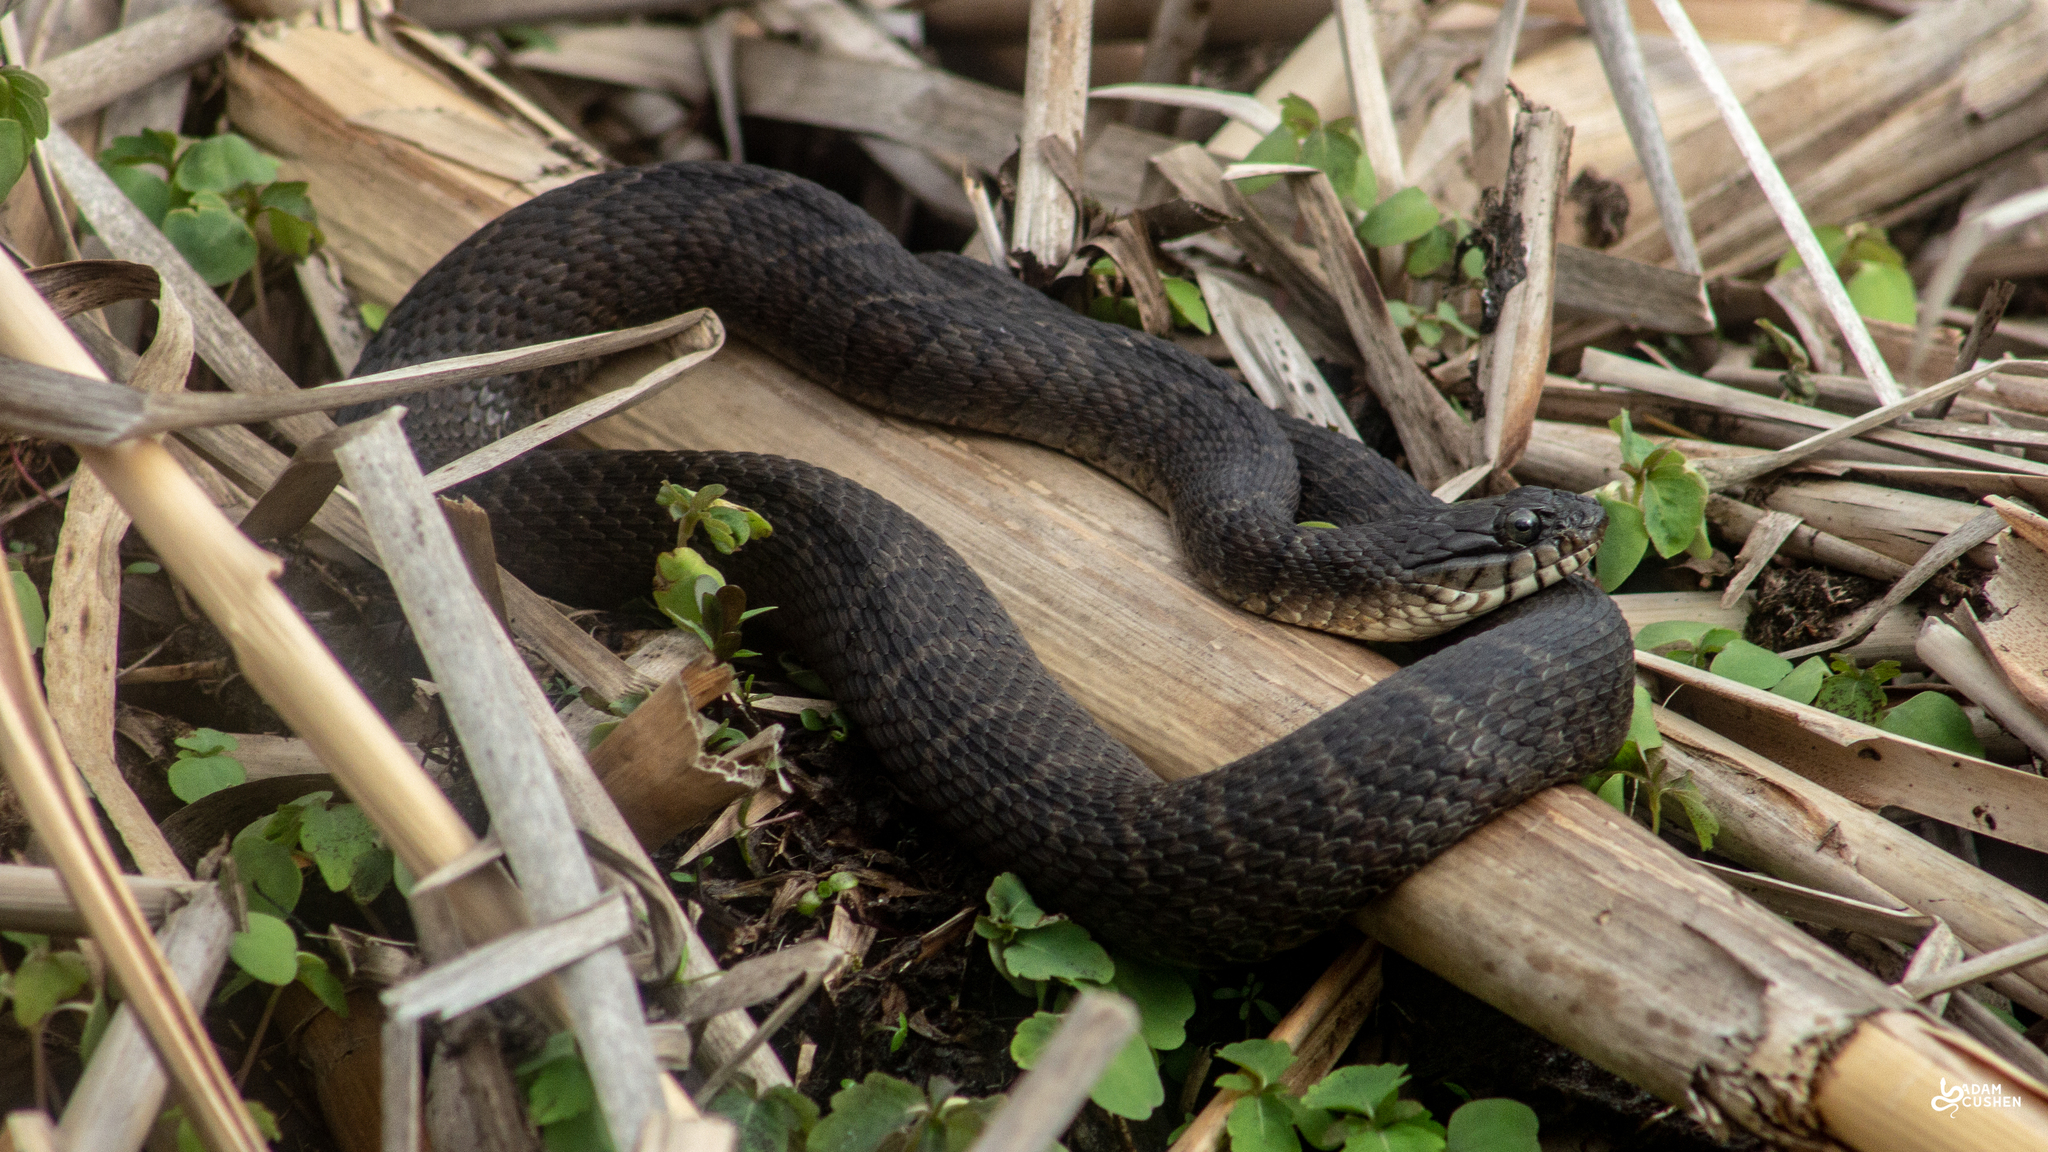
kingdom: Animalia
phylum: Chordata
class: Squamata
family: Colubridae
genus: Nerodia
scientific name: Nerodia sipedon
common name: Northern water snake
